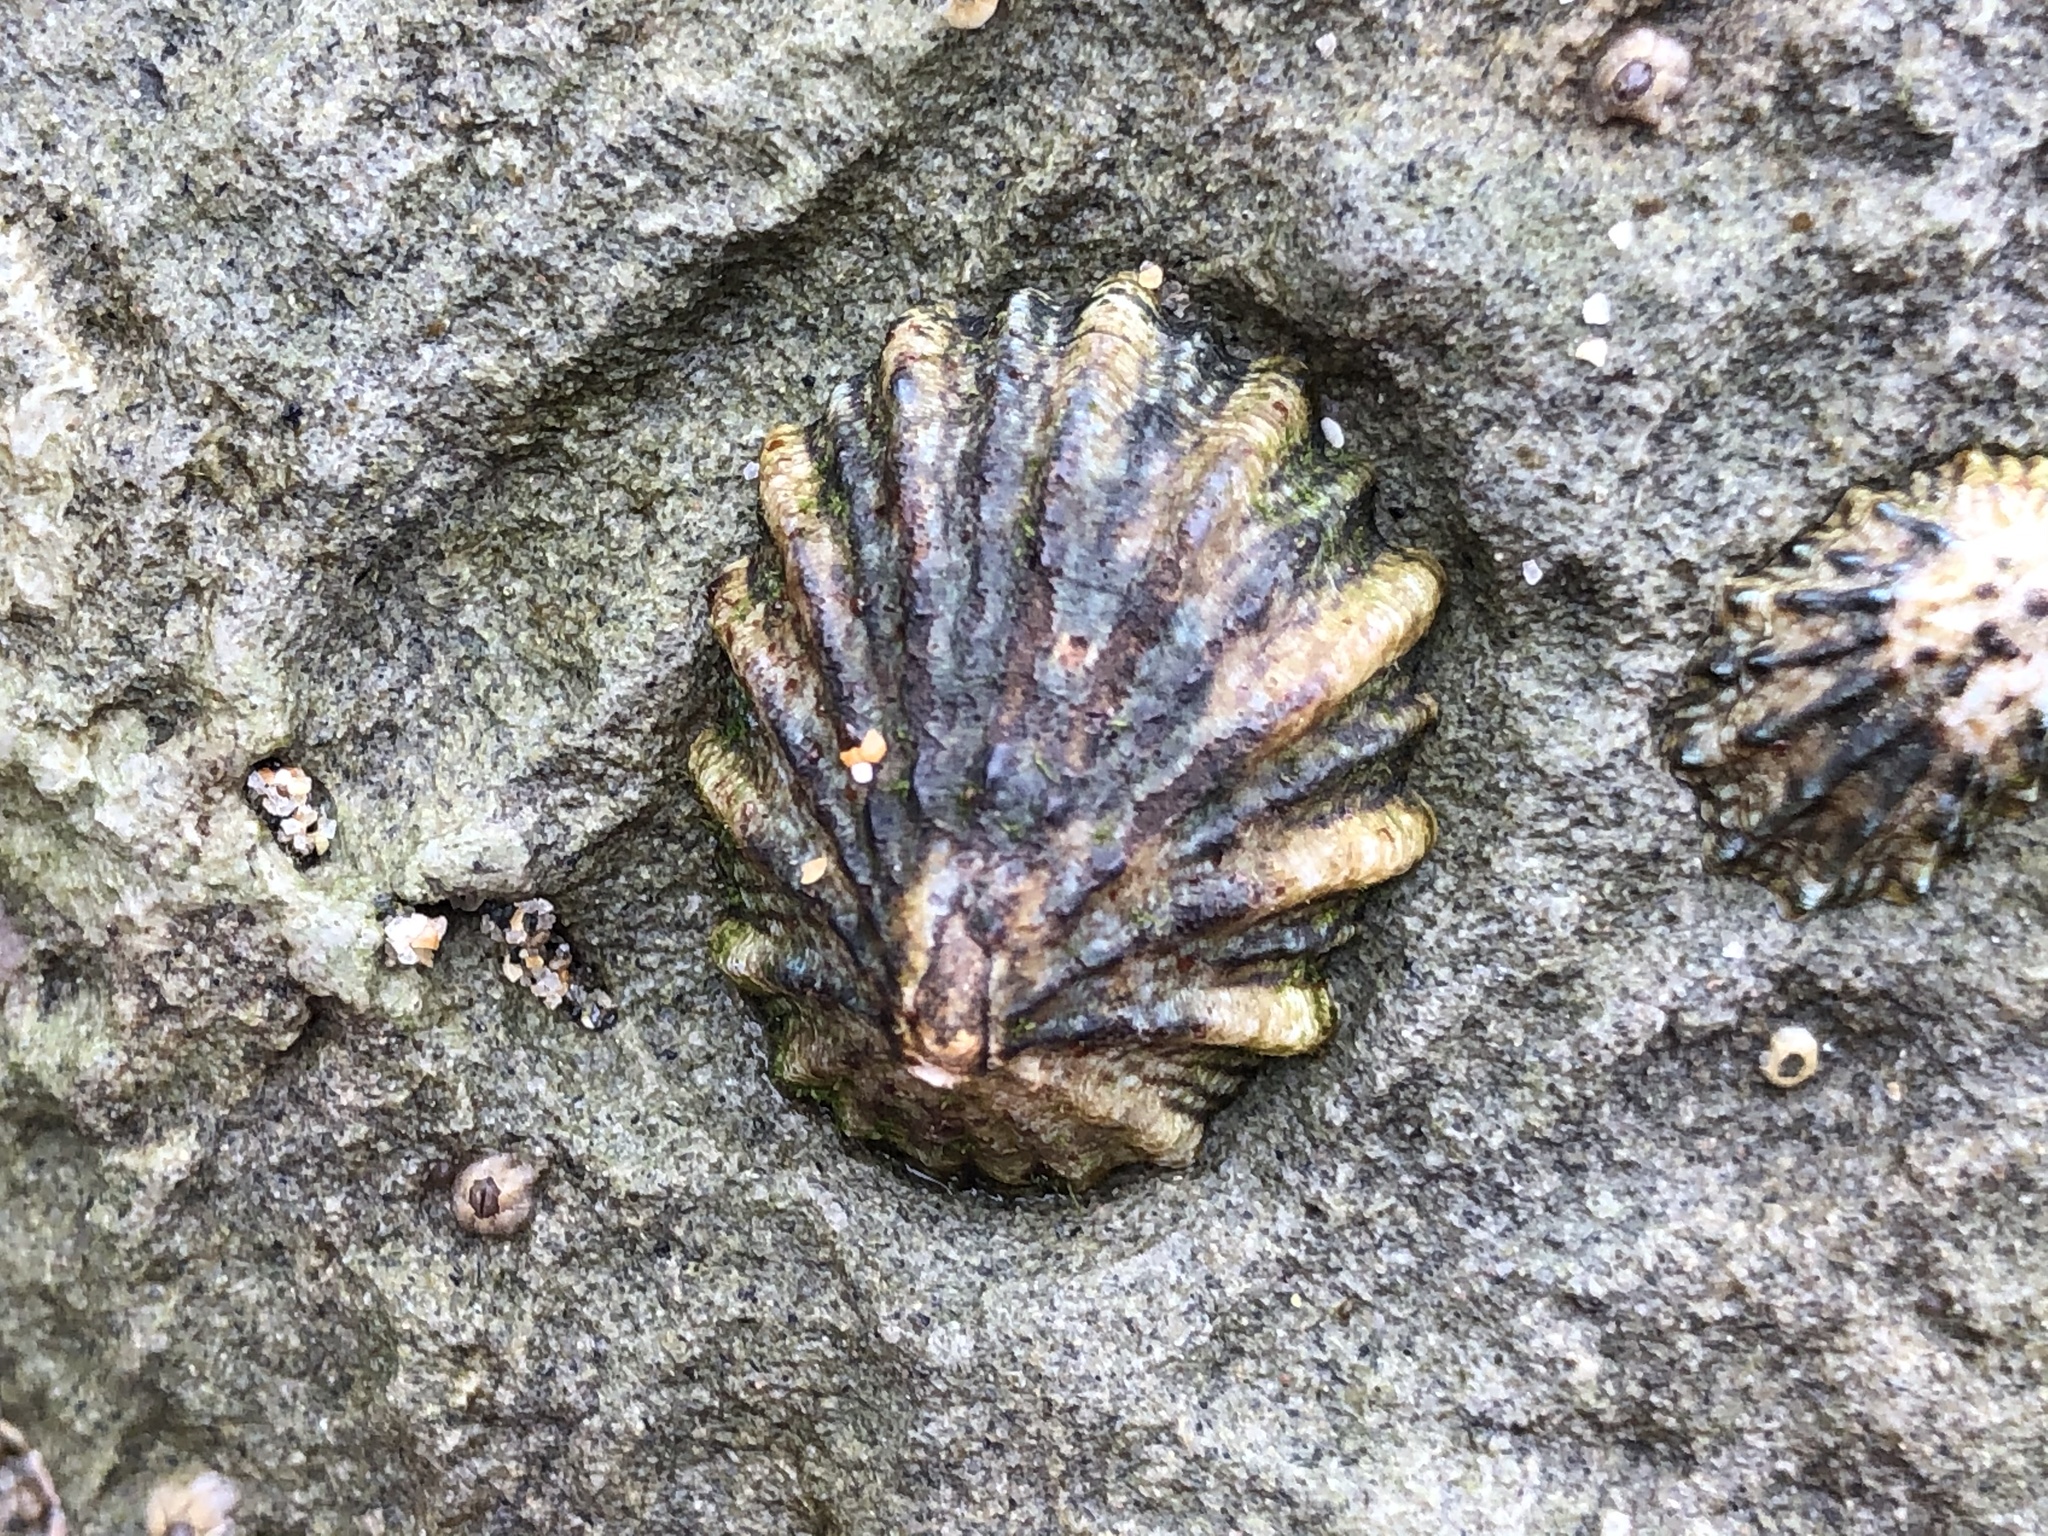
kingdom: Animalia
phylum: Mollusca
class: Gastropoda
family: Lottiidae
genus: Lottia
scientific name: Lottia scabra
